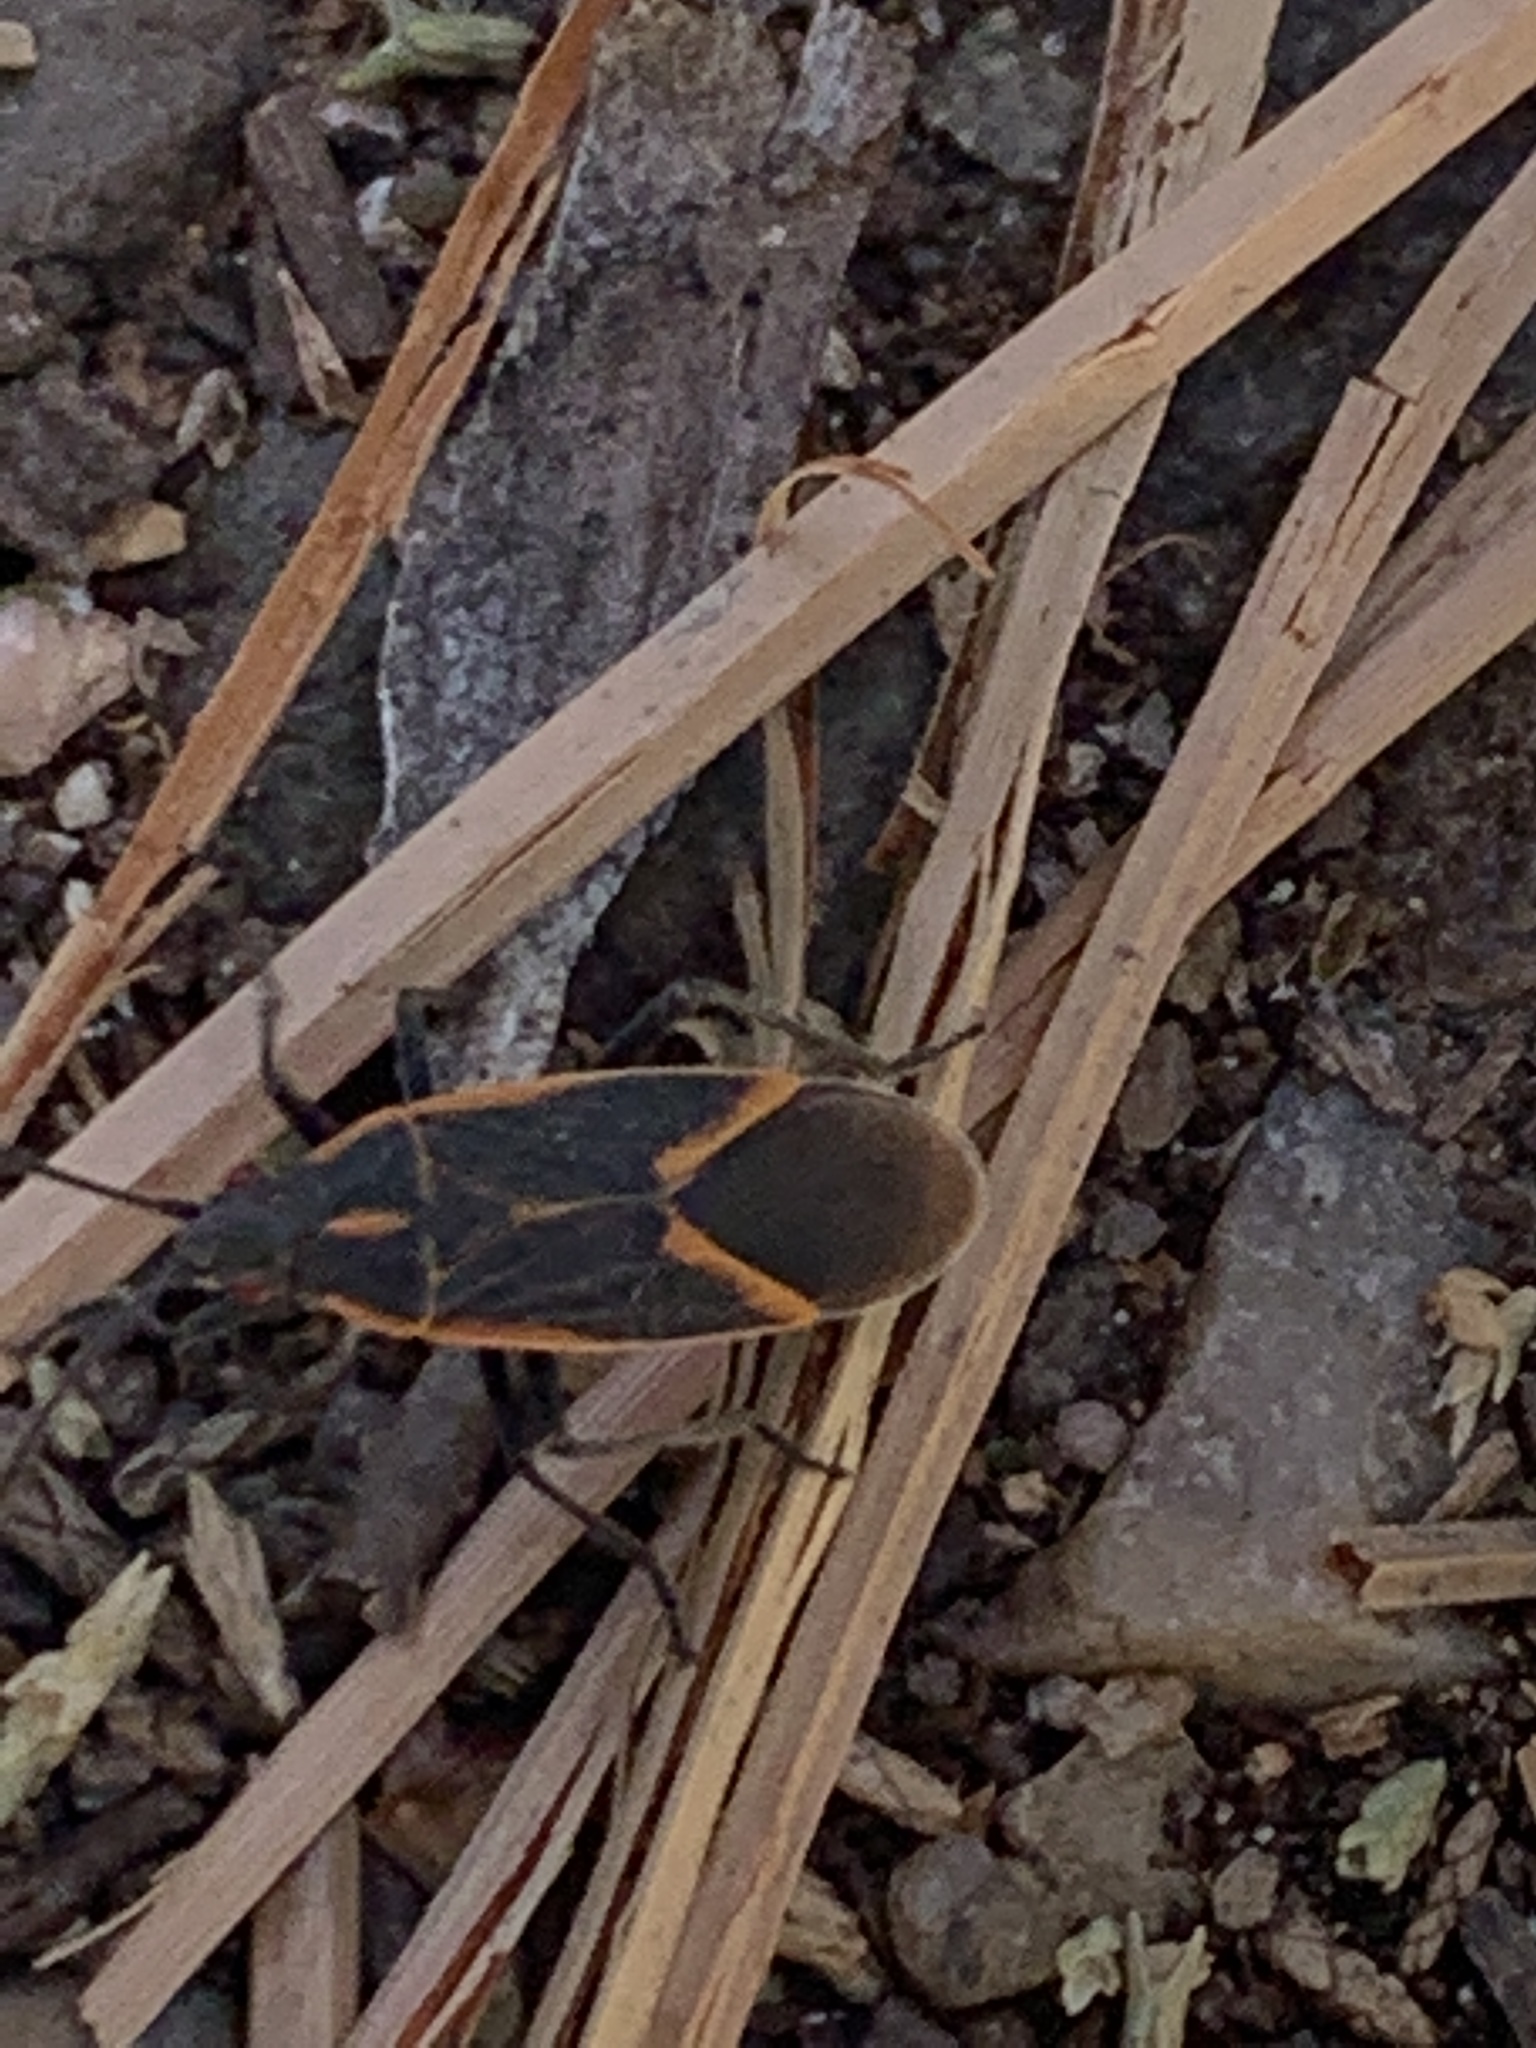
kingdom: Animalia
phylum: Arthropoda
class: Insecta
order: Hemiptera
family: Rhopalidae
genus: Boisea
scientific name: Boisea trivittata
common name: Boxelder bug
